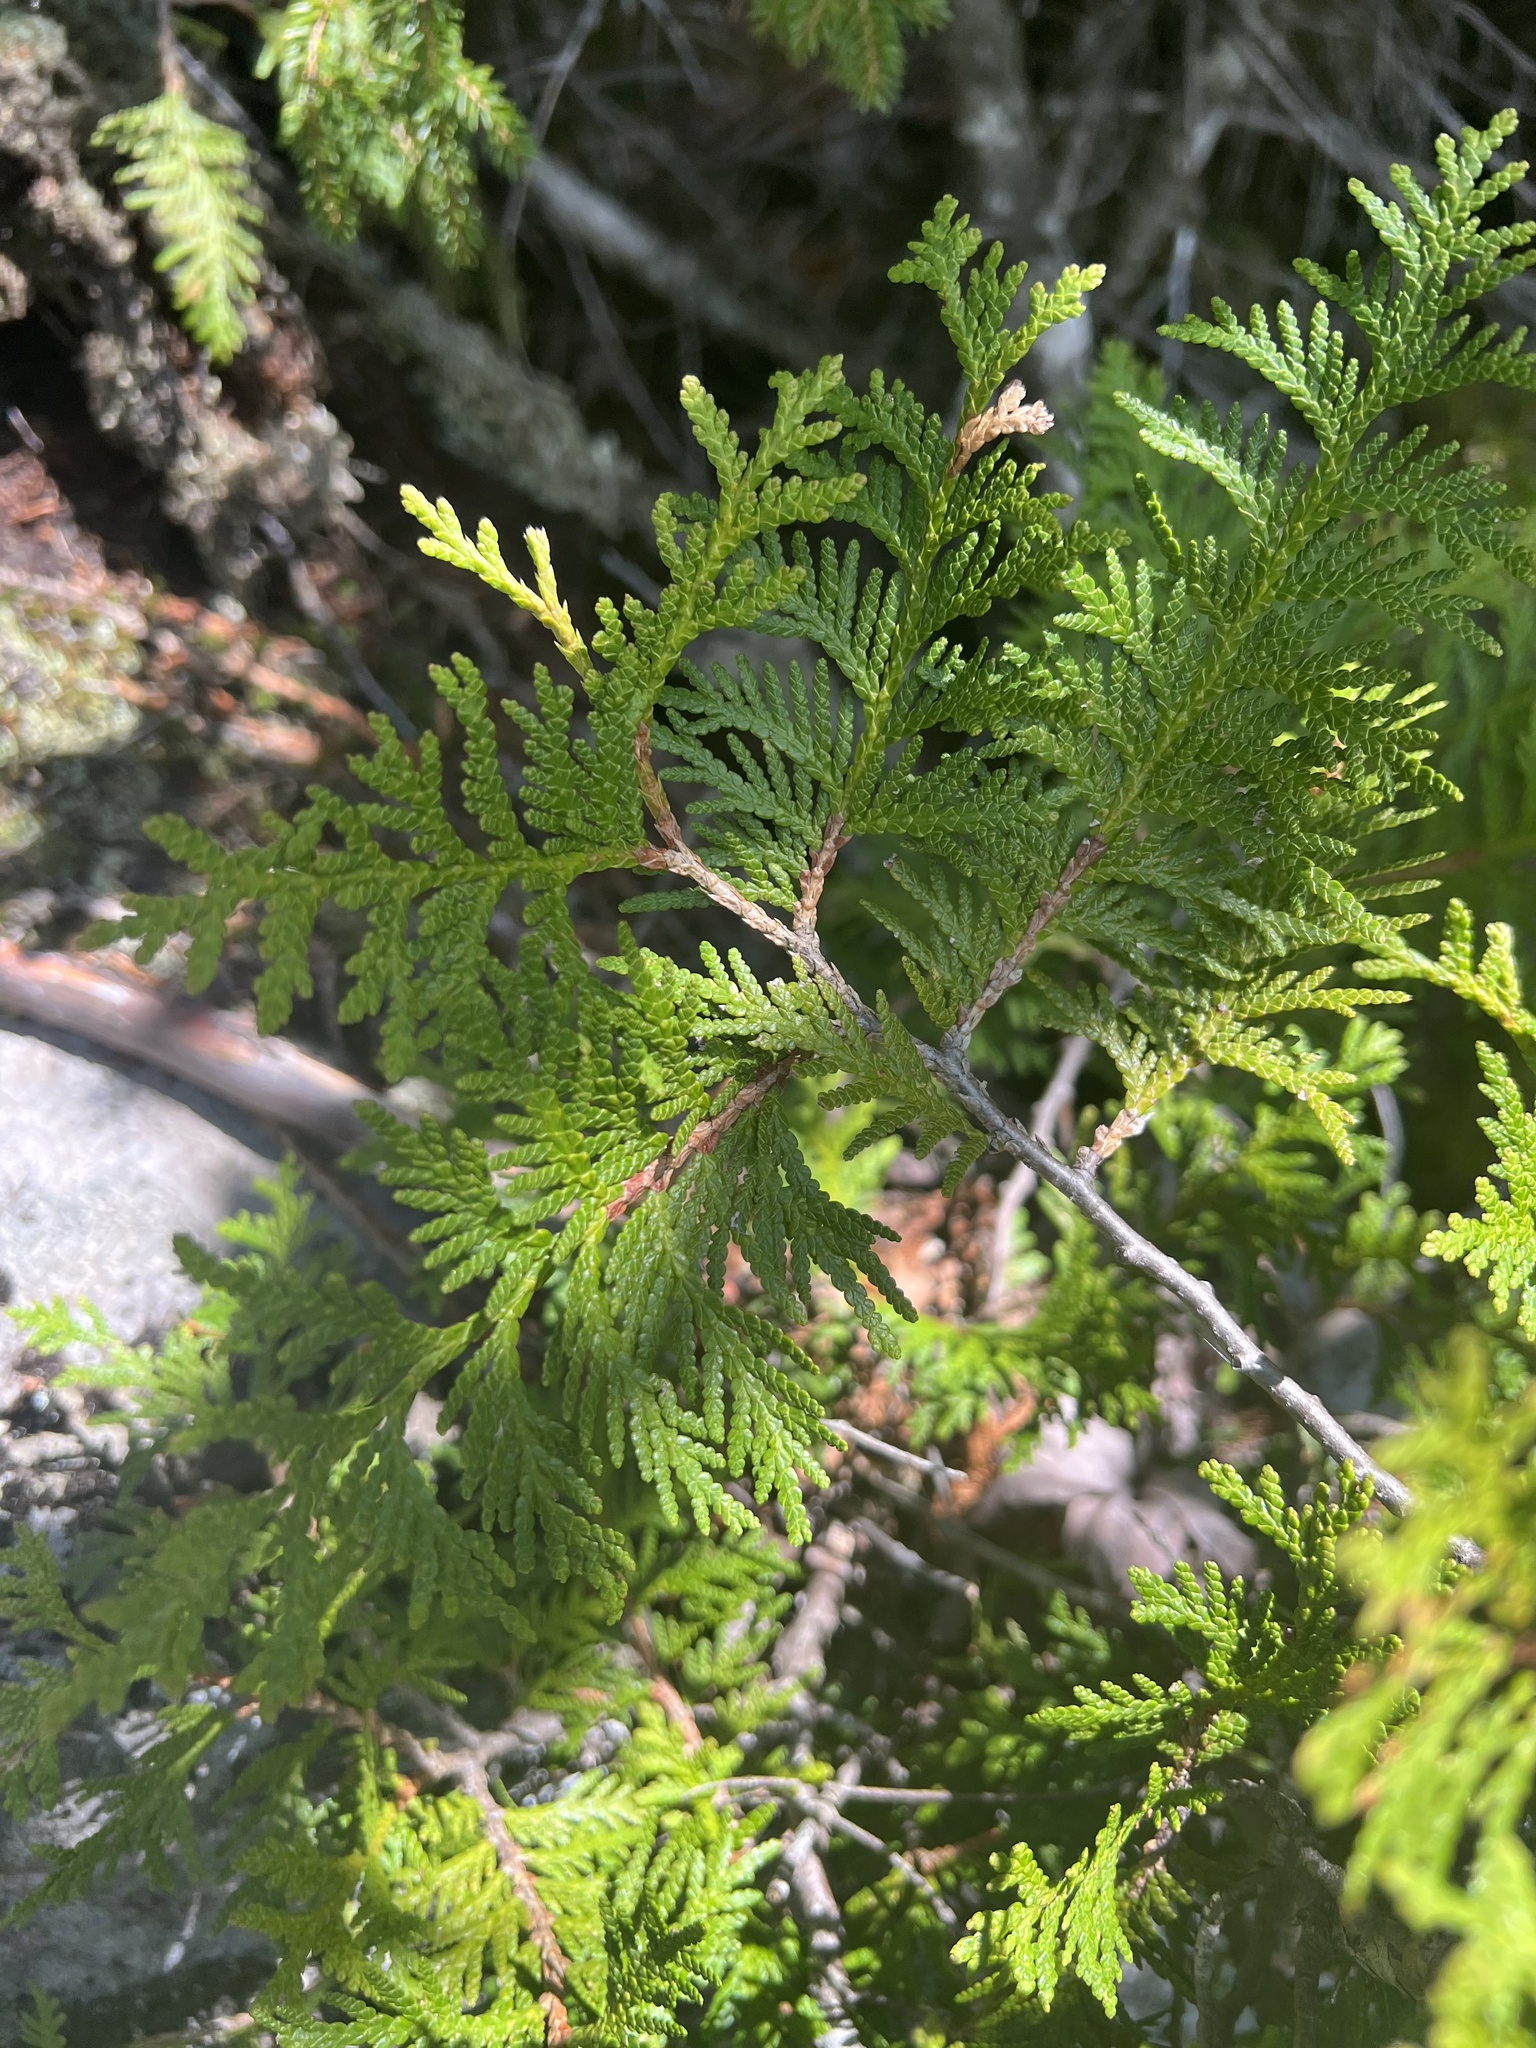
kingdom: Plantae
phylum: Tracheophyta
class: Pinopsida
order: Pinales
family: Cupressaceae
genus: Thuja
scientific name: Thuja occidentalis
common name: Northern white-cedar
